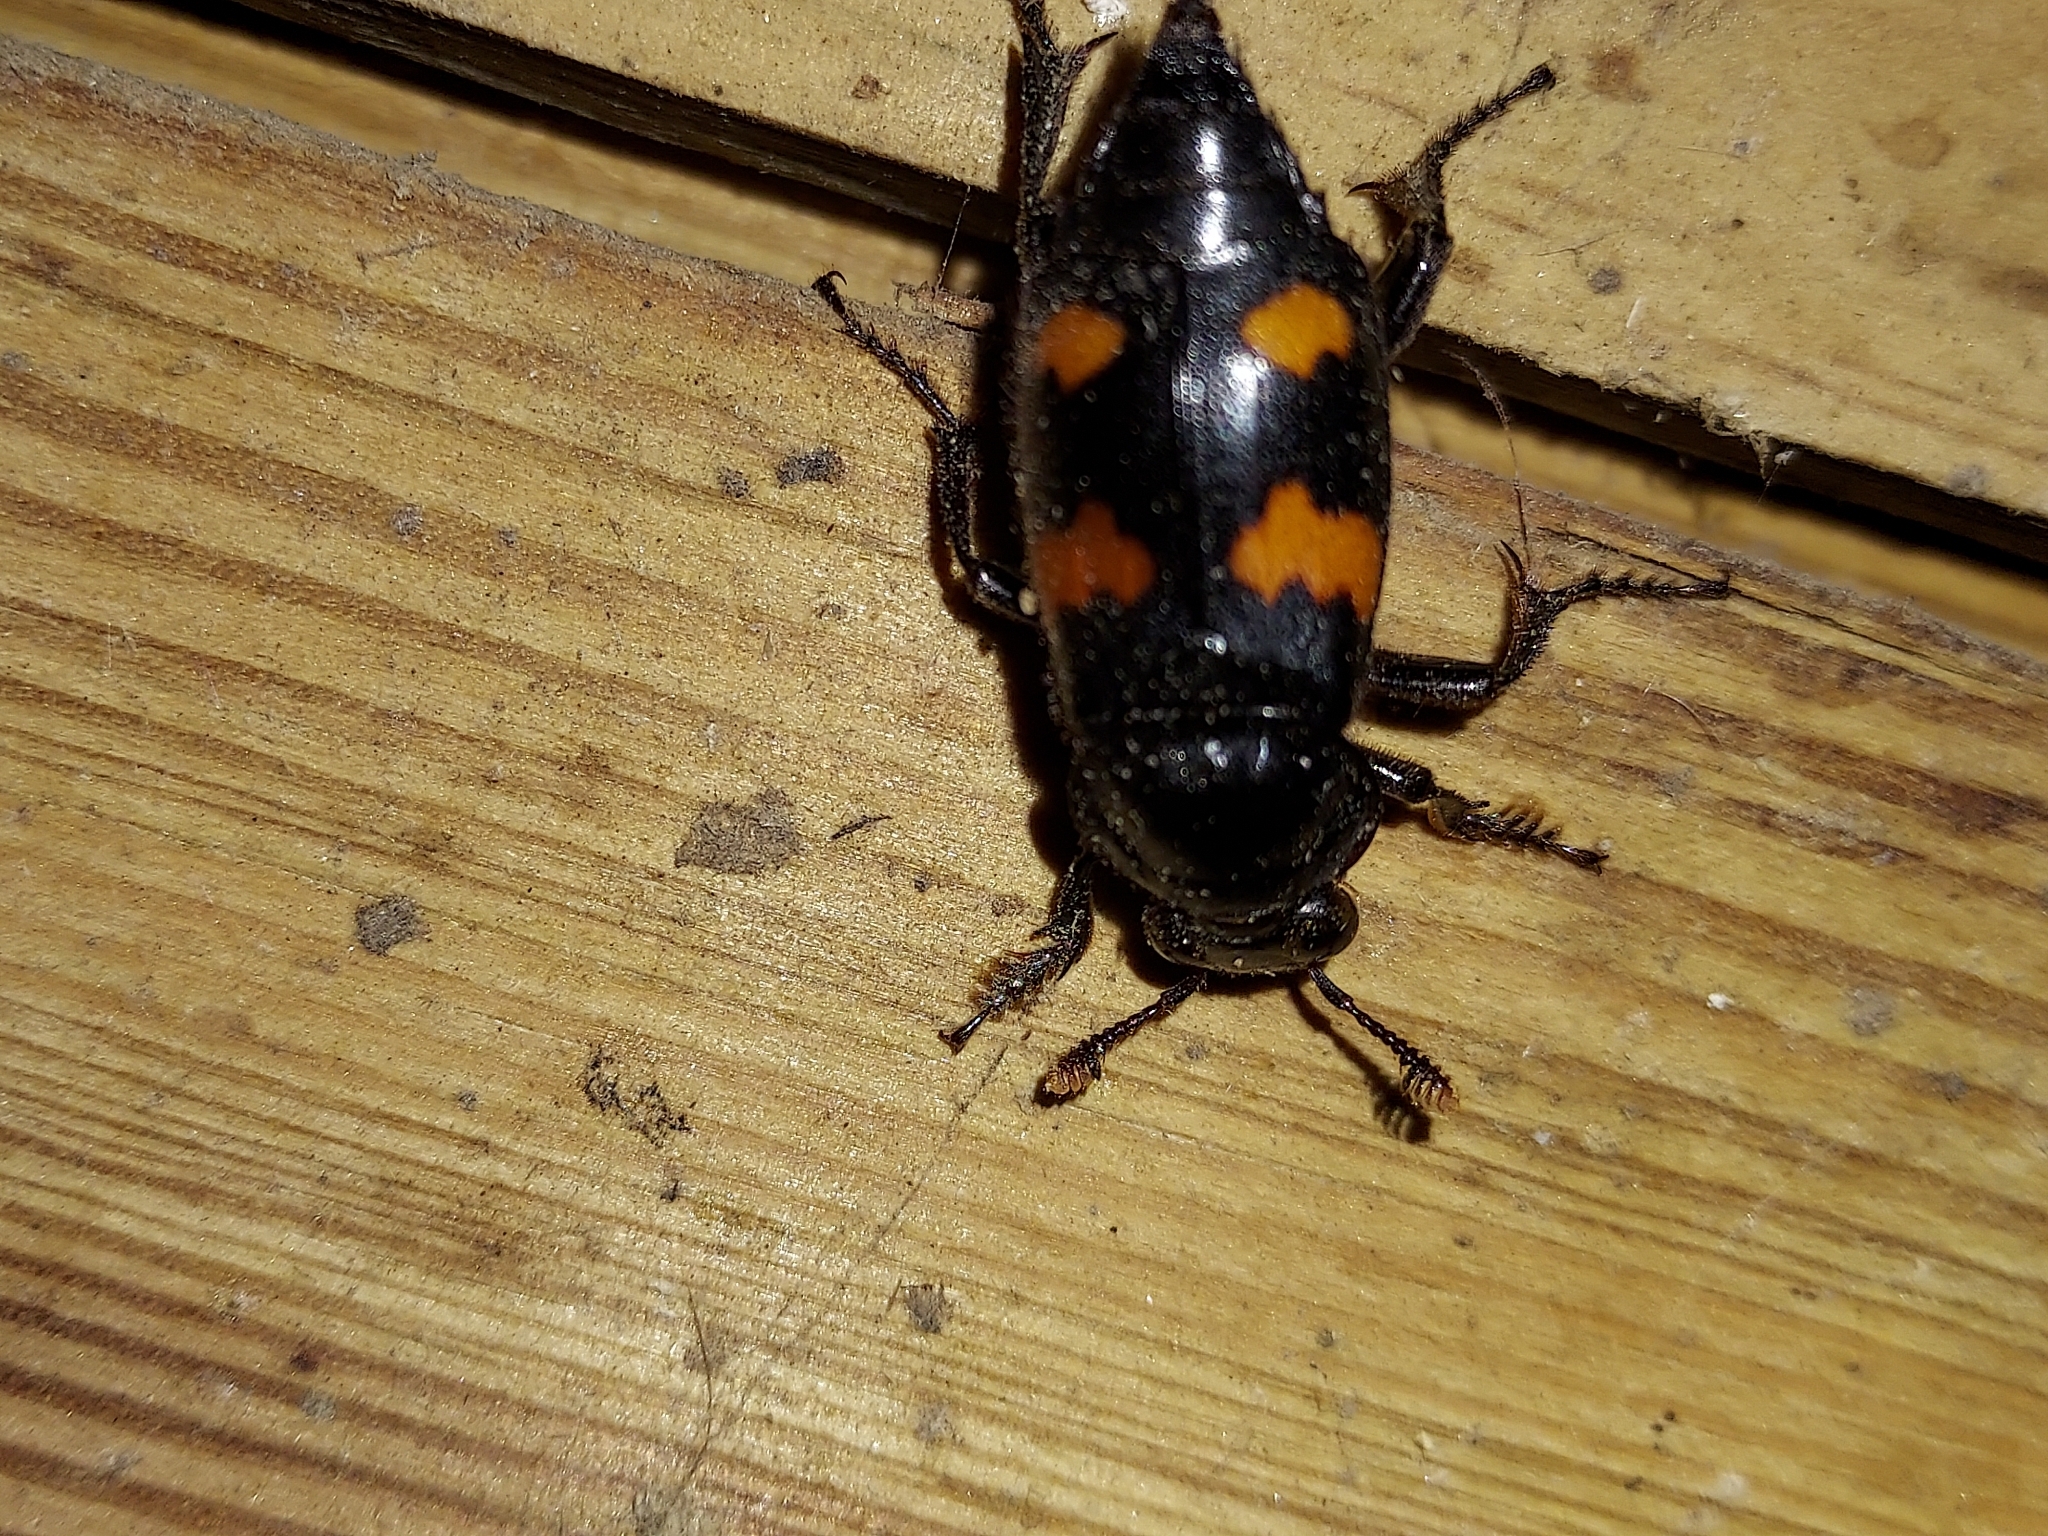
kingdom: Animalia
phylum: Arthropoda
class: Insecta
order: Coleoptera
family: Staphylinidae
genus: Nicrophorus
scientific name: Nicrophorus orbicollis
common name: Roundneck sexton beetle
